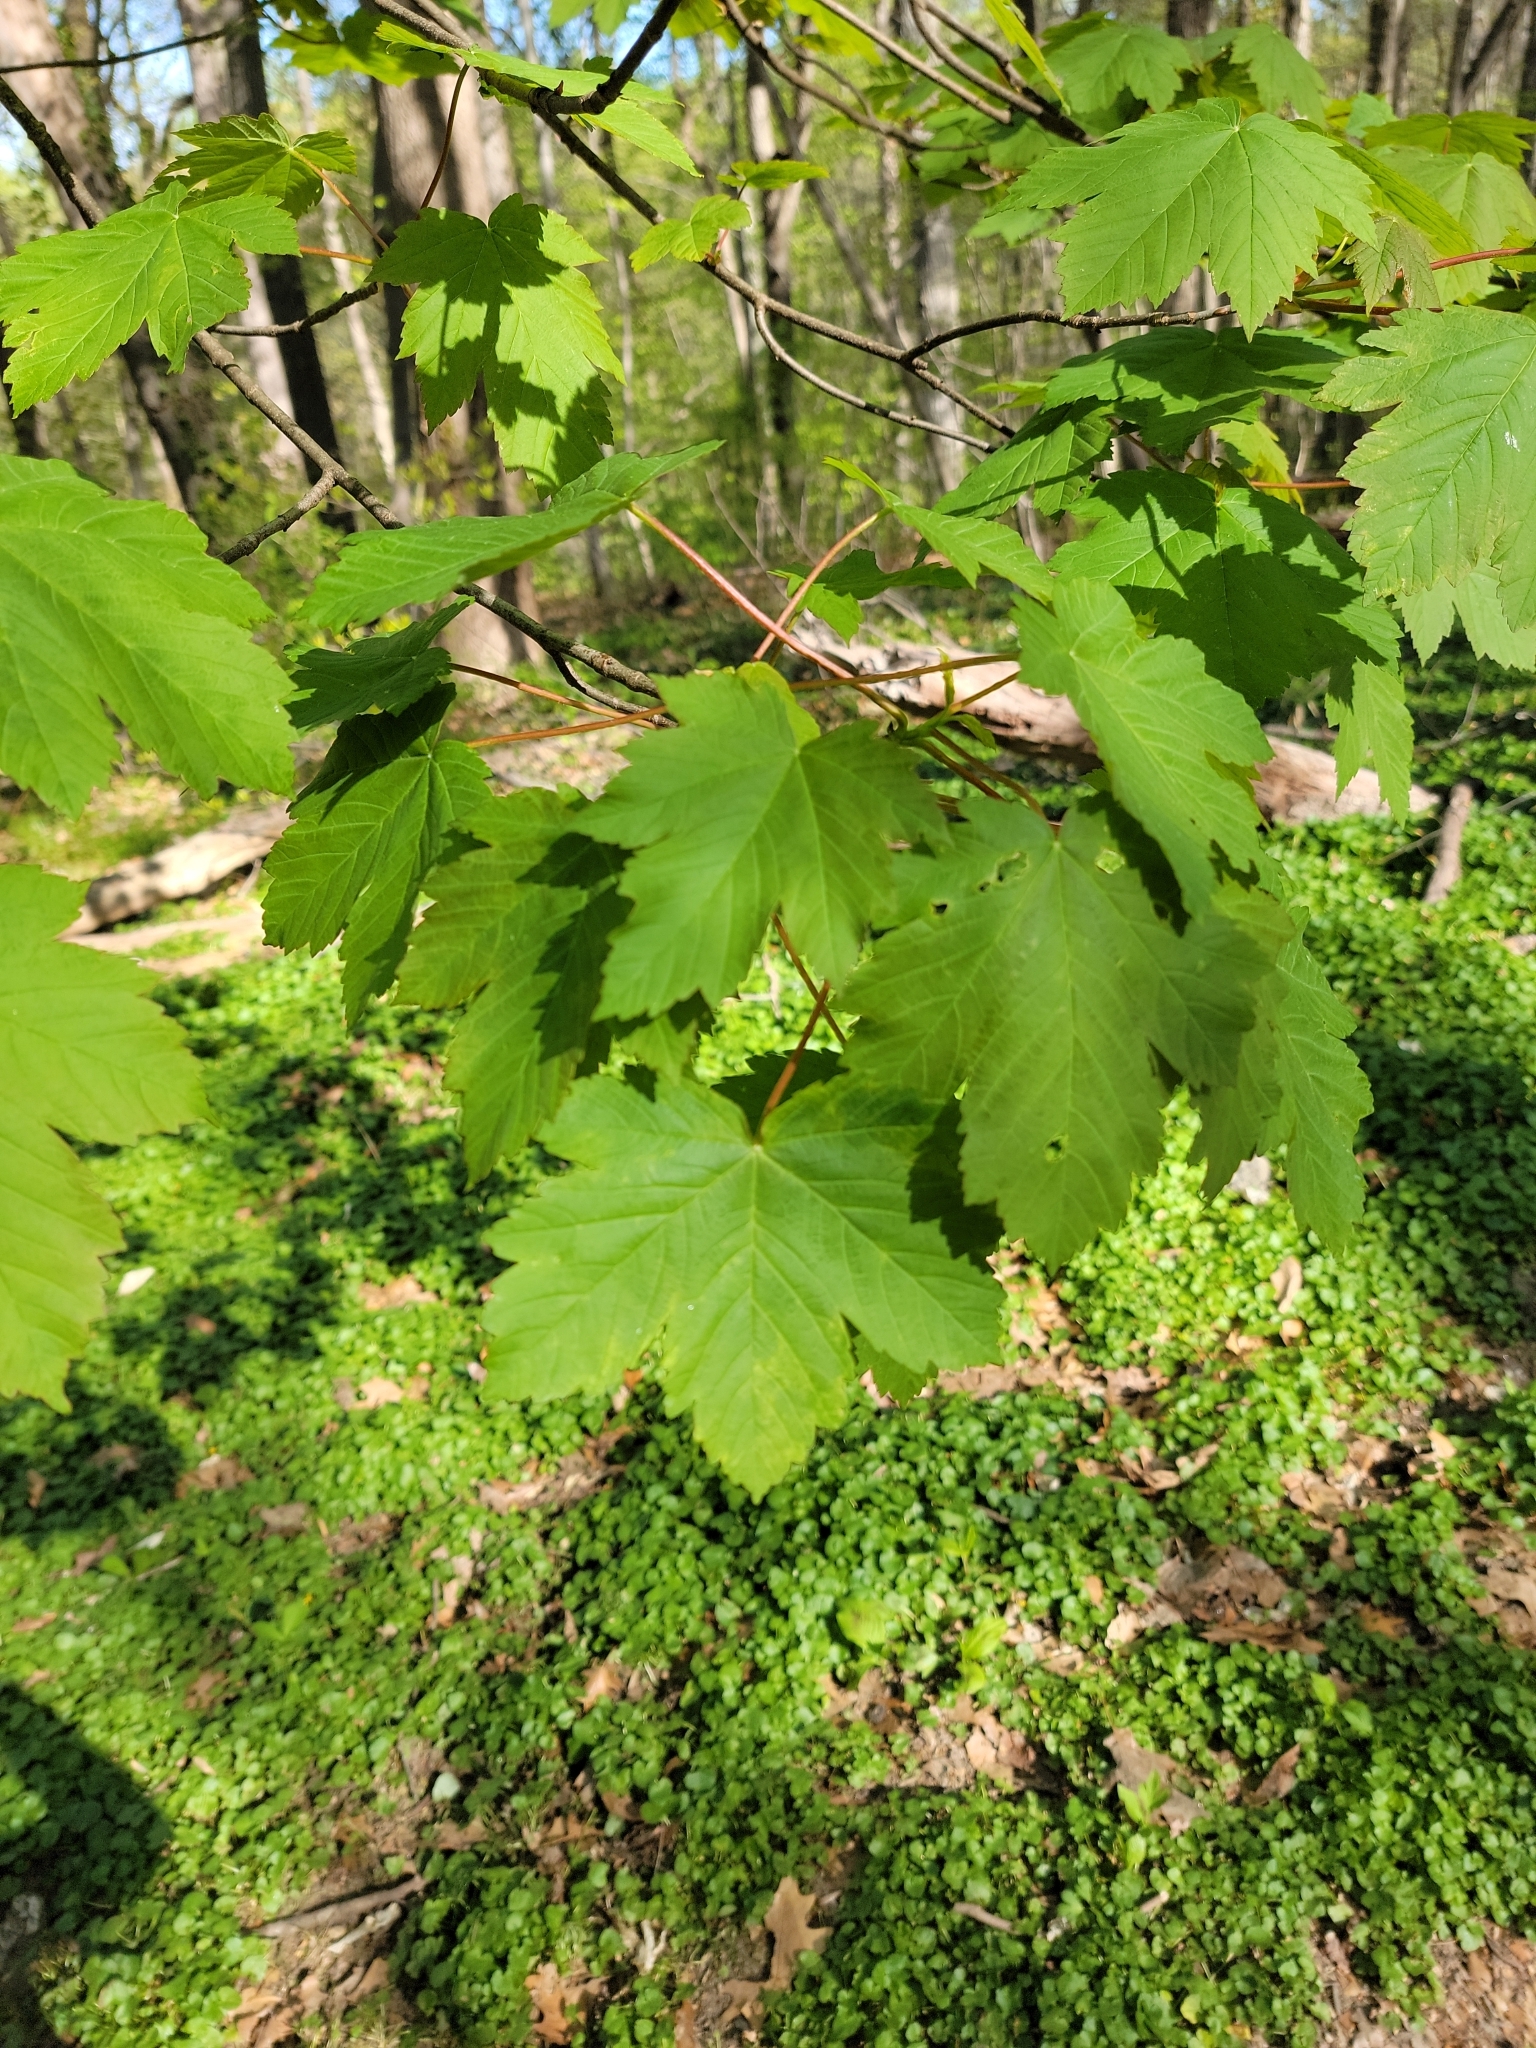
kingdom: Plantae
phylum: Tracheophyta
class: Magnoliopsida
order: Sapindales
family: Sapindaceae
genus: Acer
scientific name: Acer pseudoplatanus
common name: Sycamore
